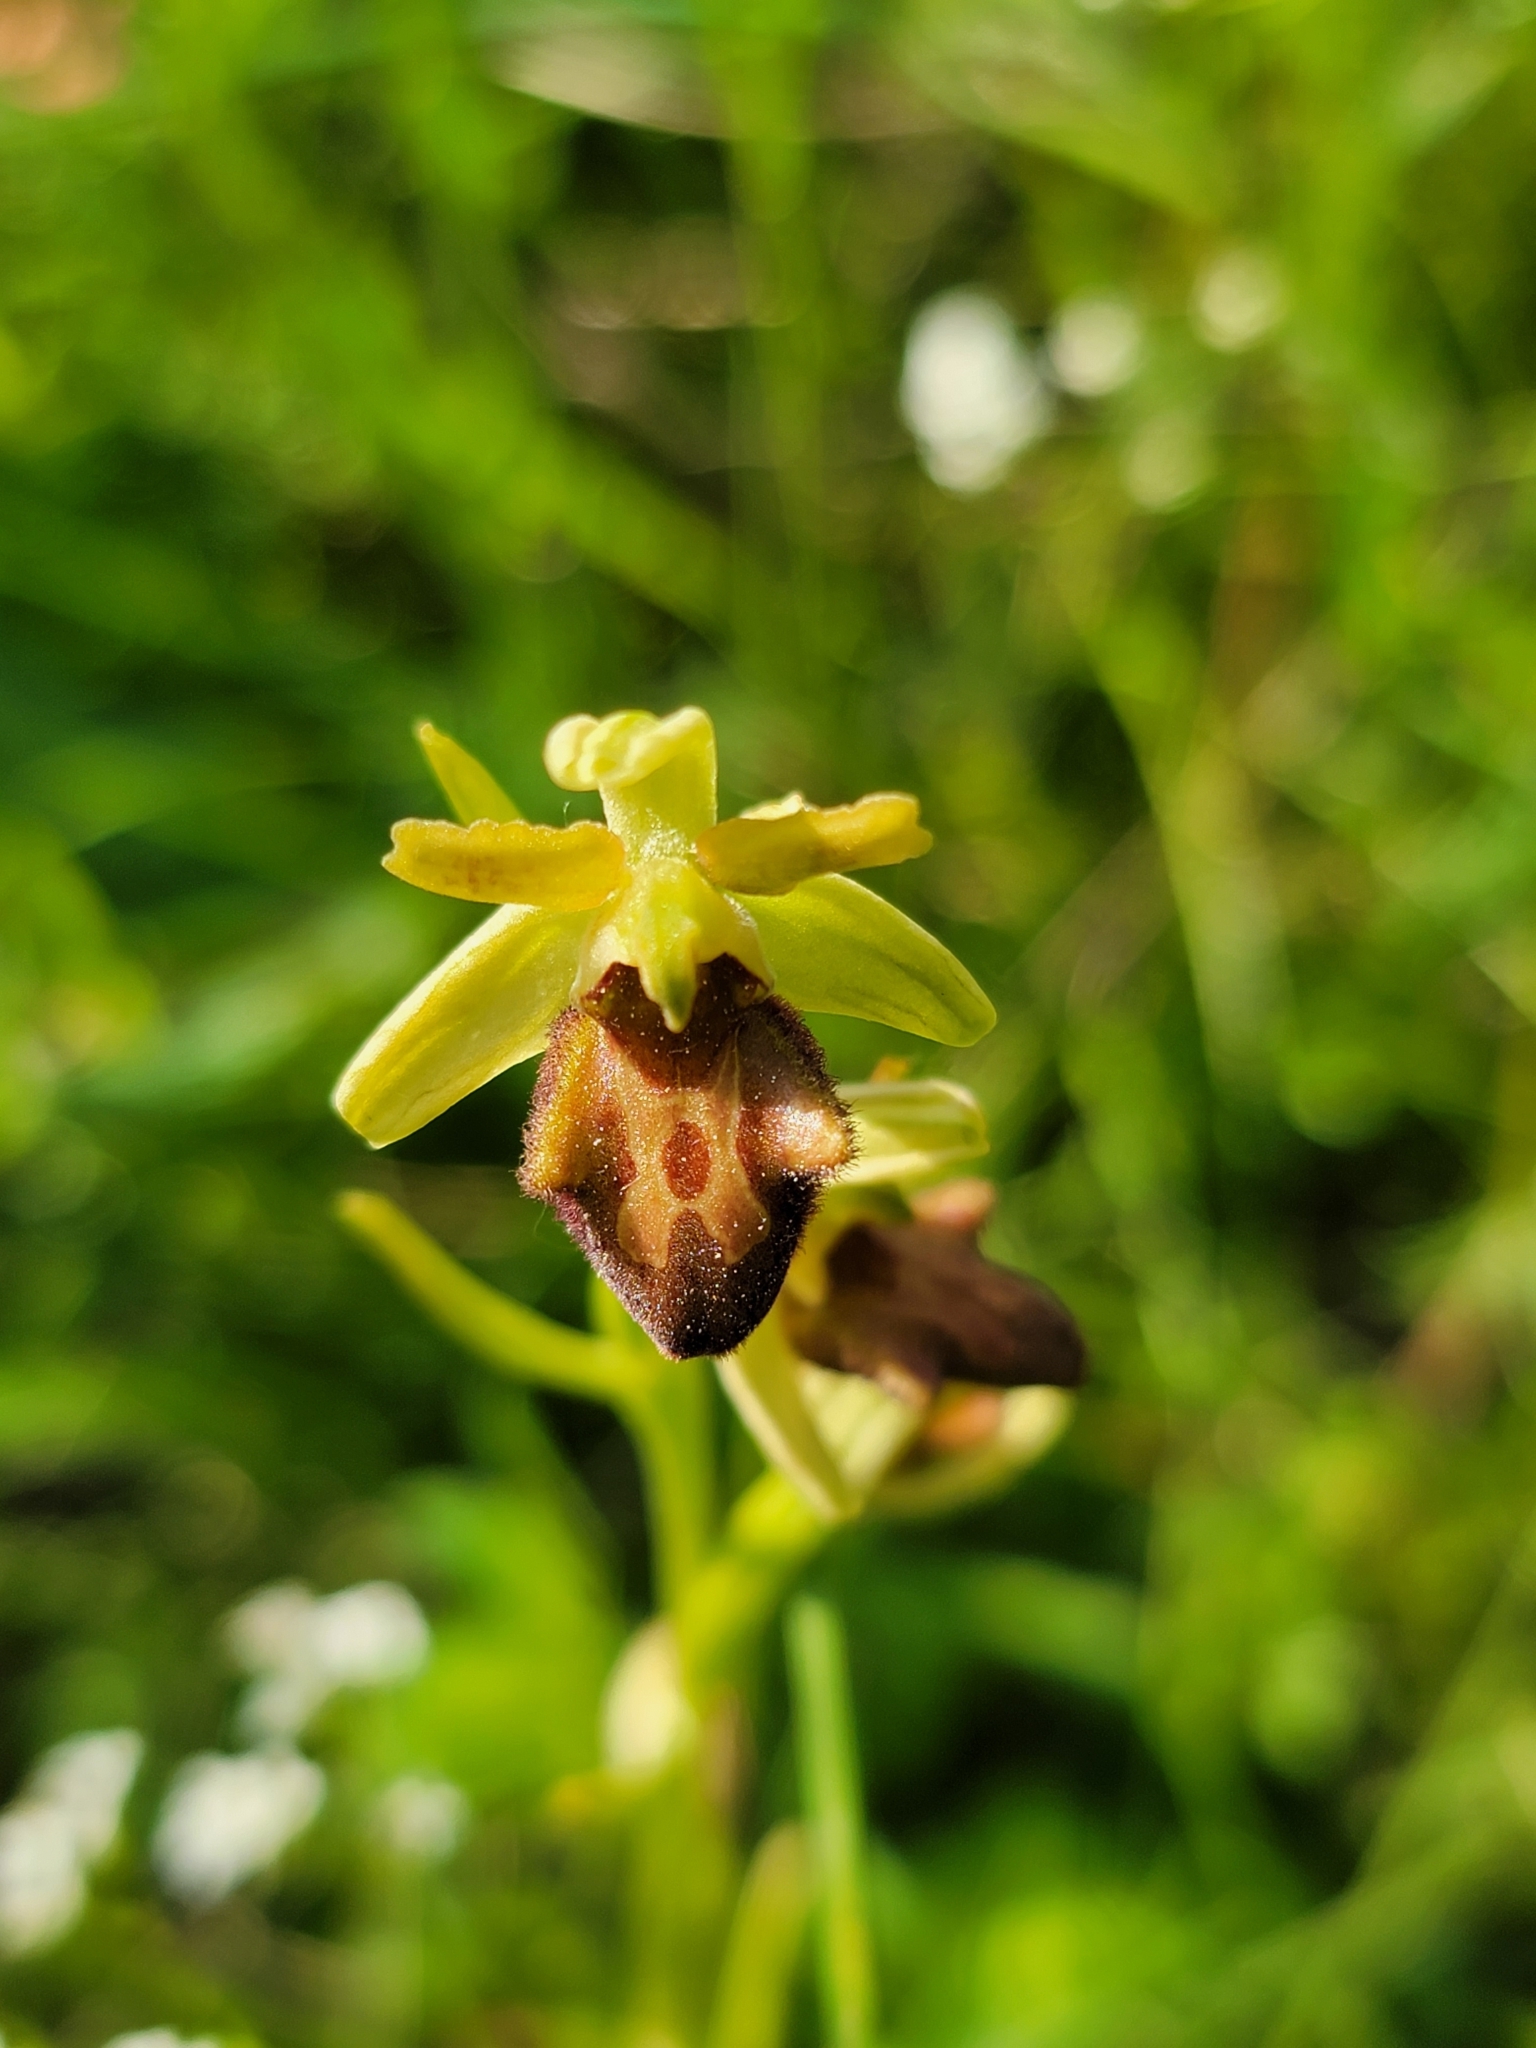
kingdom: Plantae
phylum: Tracheophyta
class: Liliopsida
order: Asparagales
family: Orchidaceae
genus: Ophrys
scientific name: Ophrys sphegodes
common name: Early spider-orchid
